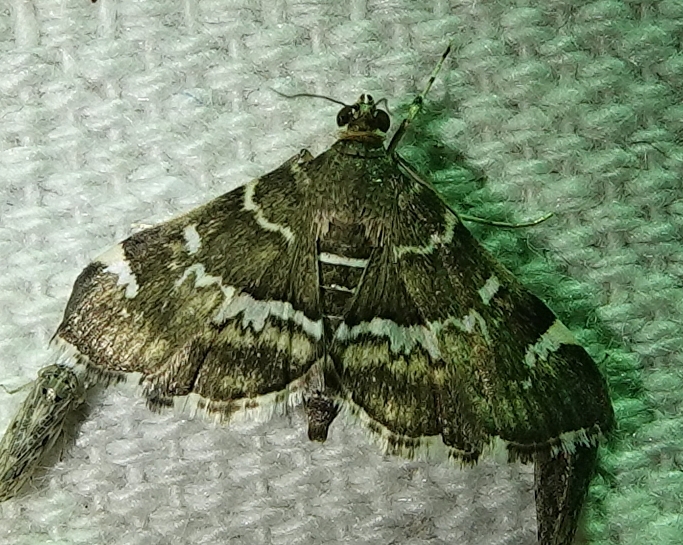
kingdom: Animalia
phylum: Arthropoda
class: Insecta
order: Lepidoptera
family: Crambidae
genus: Hymenia
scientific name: Hymenia perspectalis
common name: Spotted beet webworm
